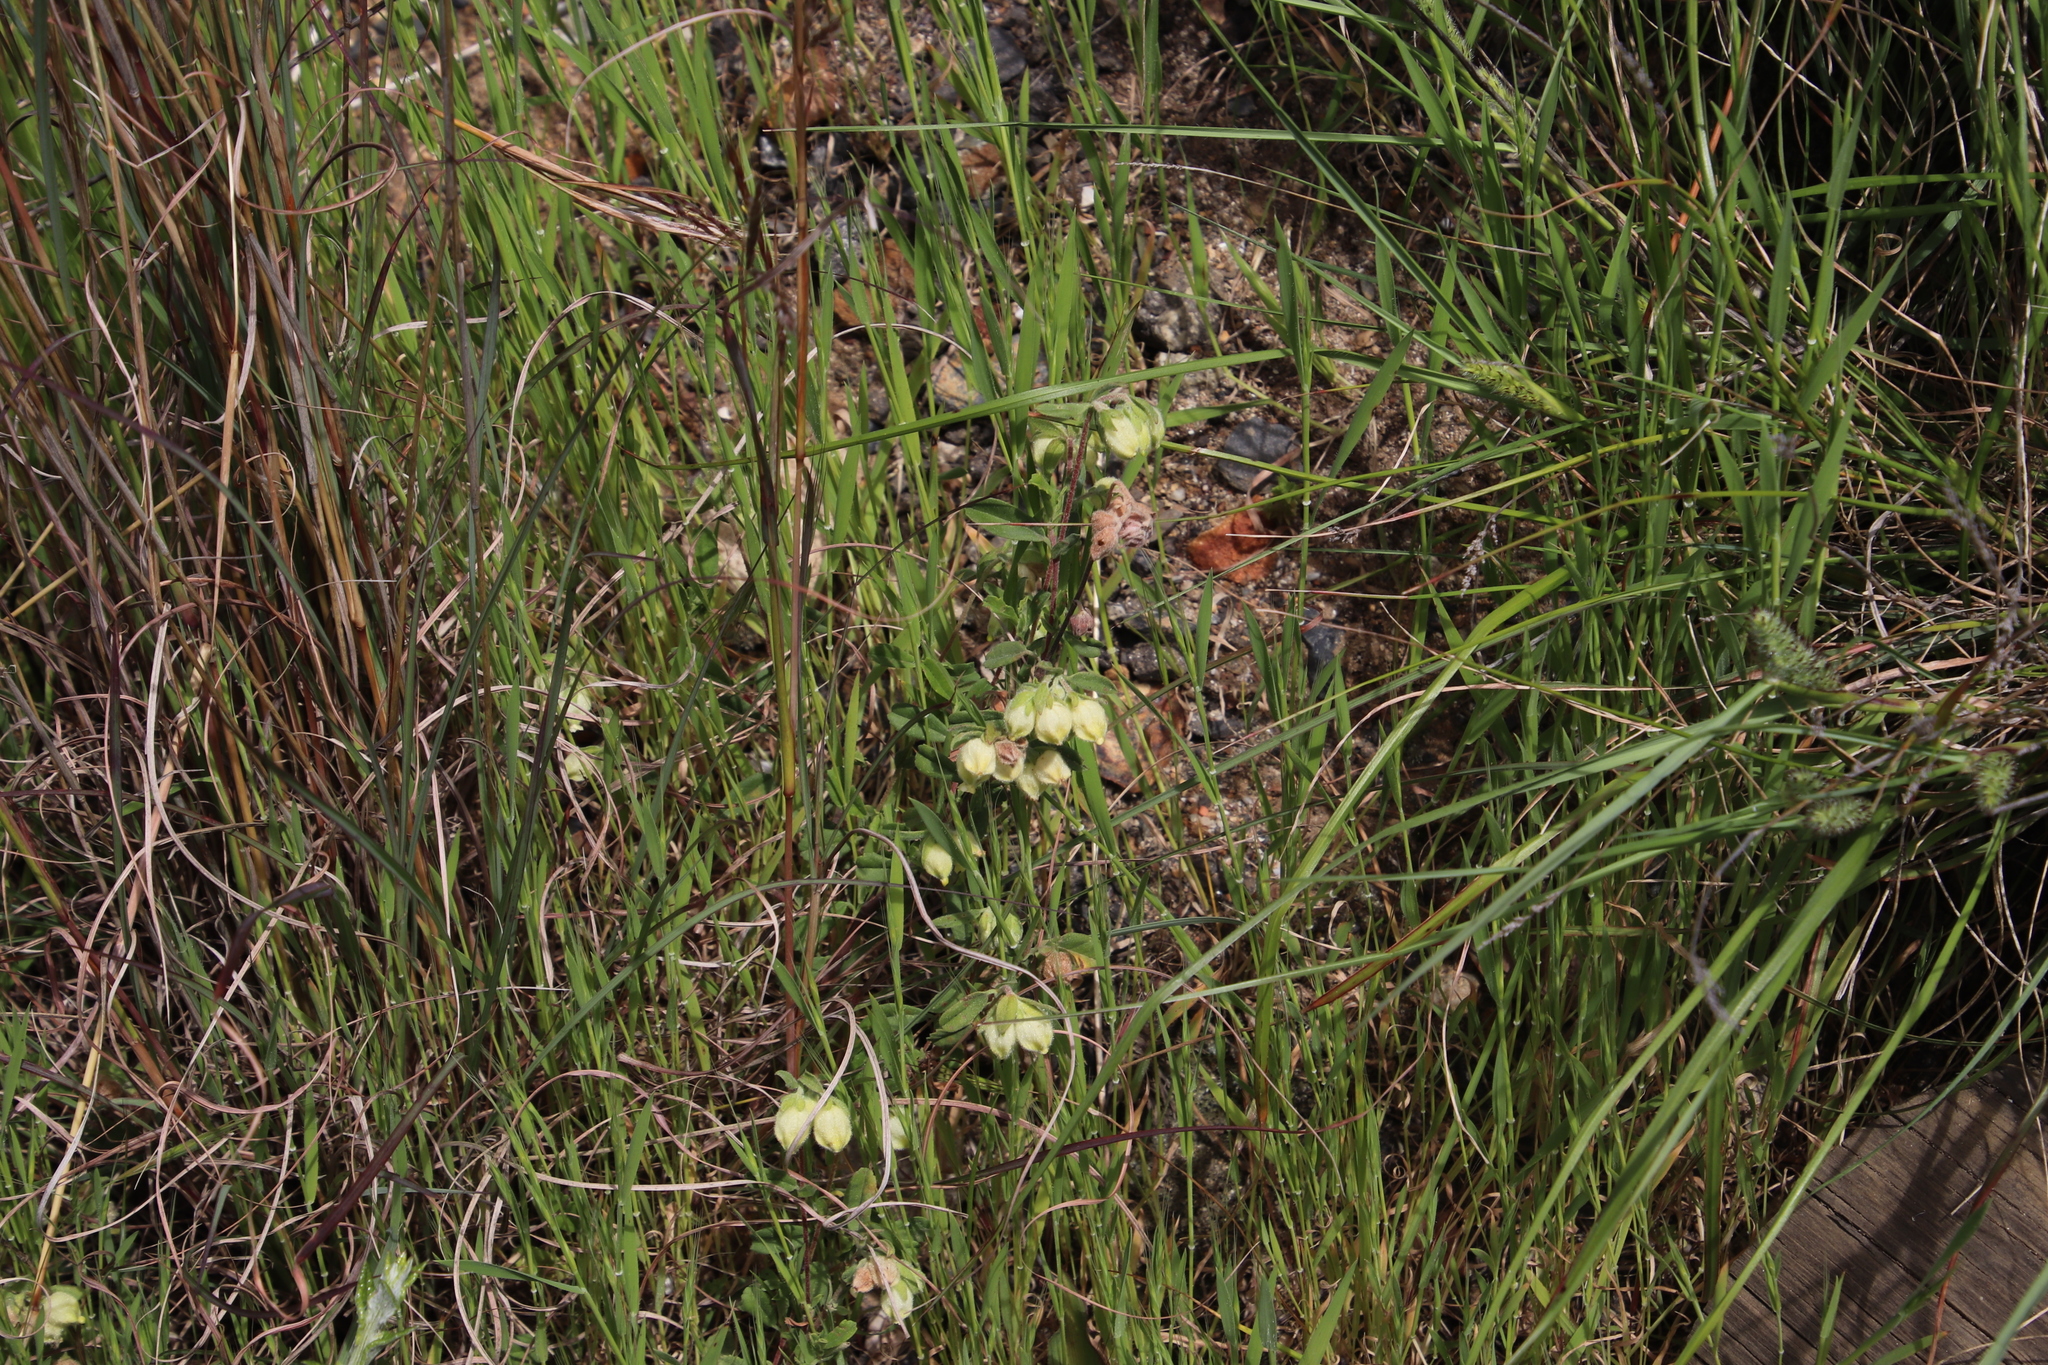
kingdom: Plantae
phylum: Tracheophyta
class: Magnoliopsida
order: Malvales
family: Malvaceae
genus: Hermannia
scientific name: Hermannia hyssopifolia
